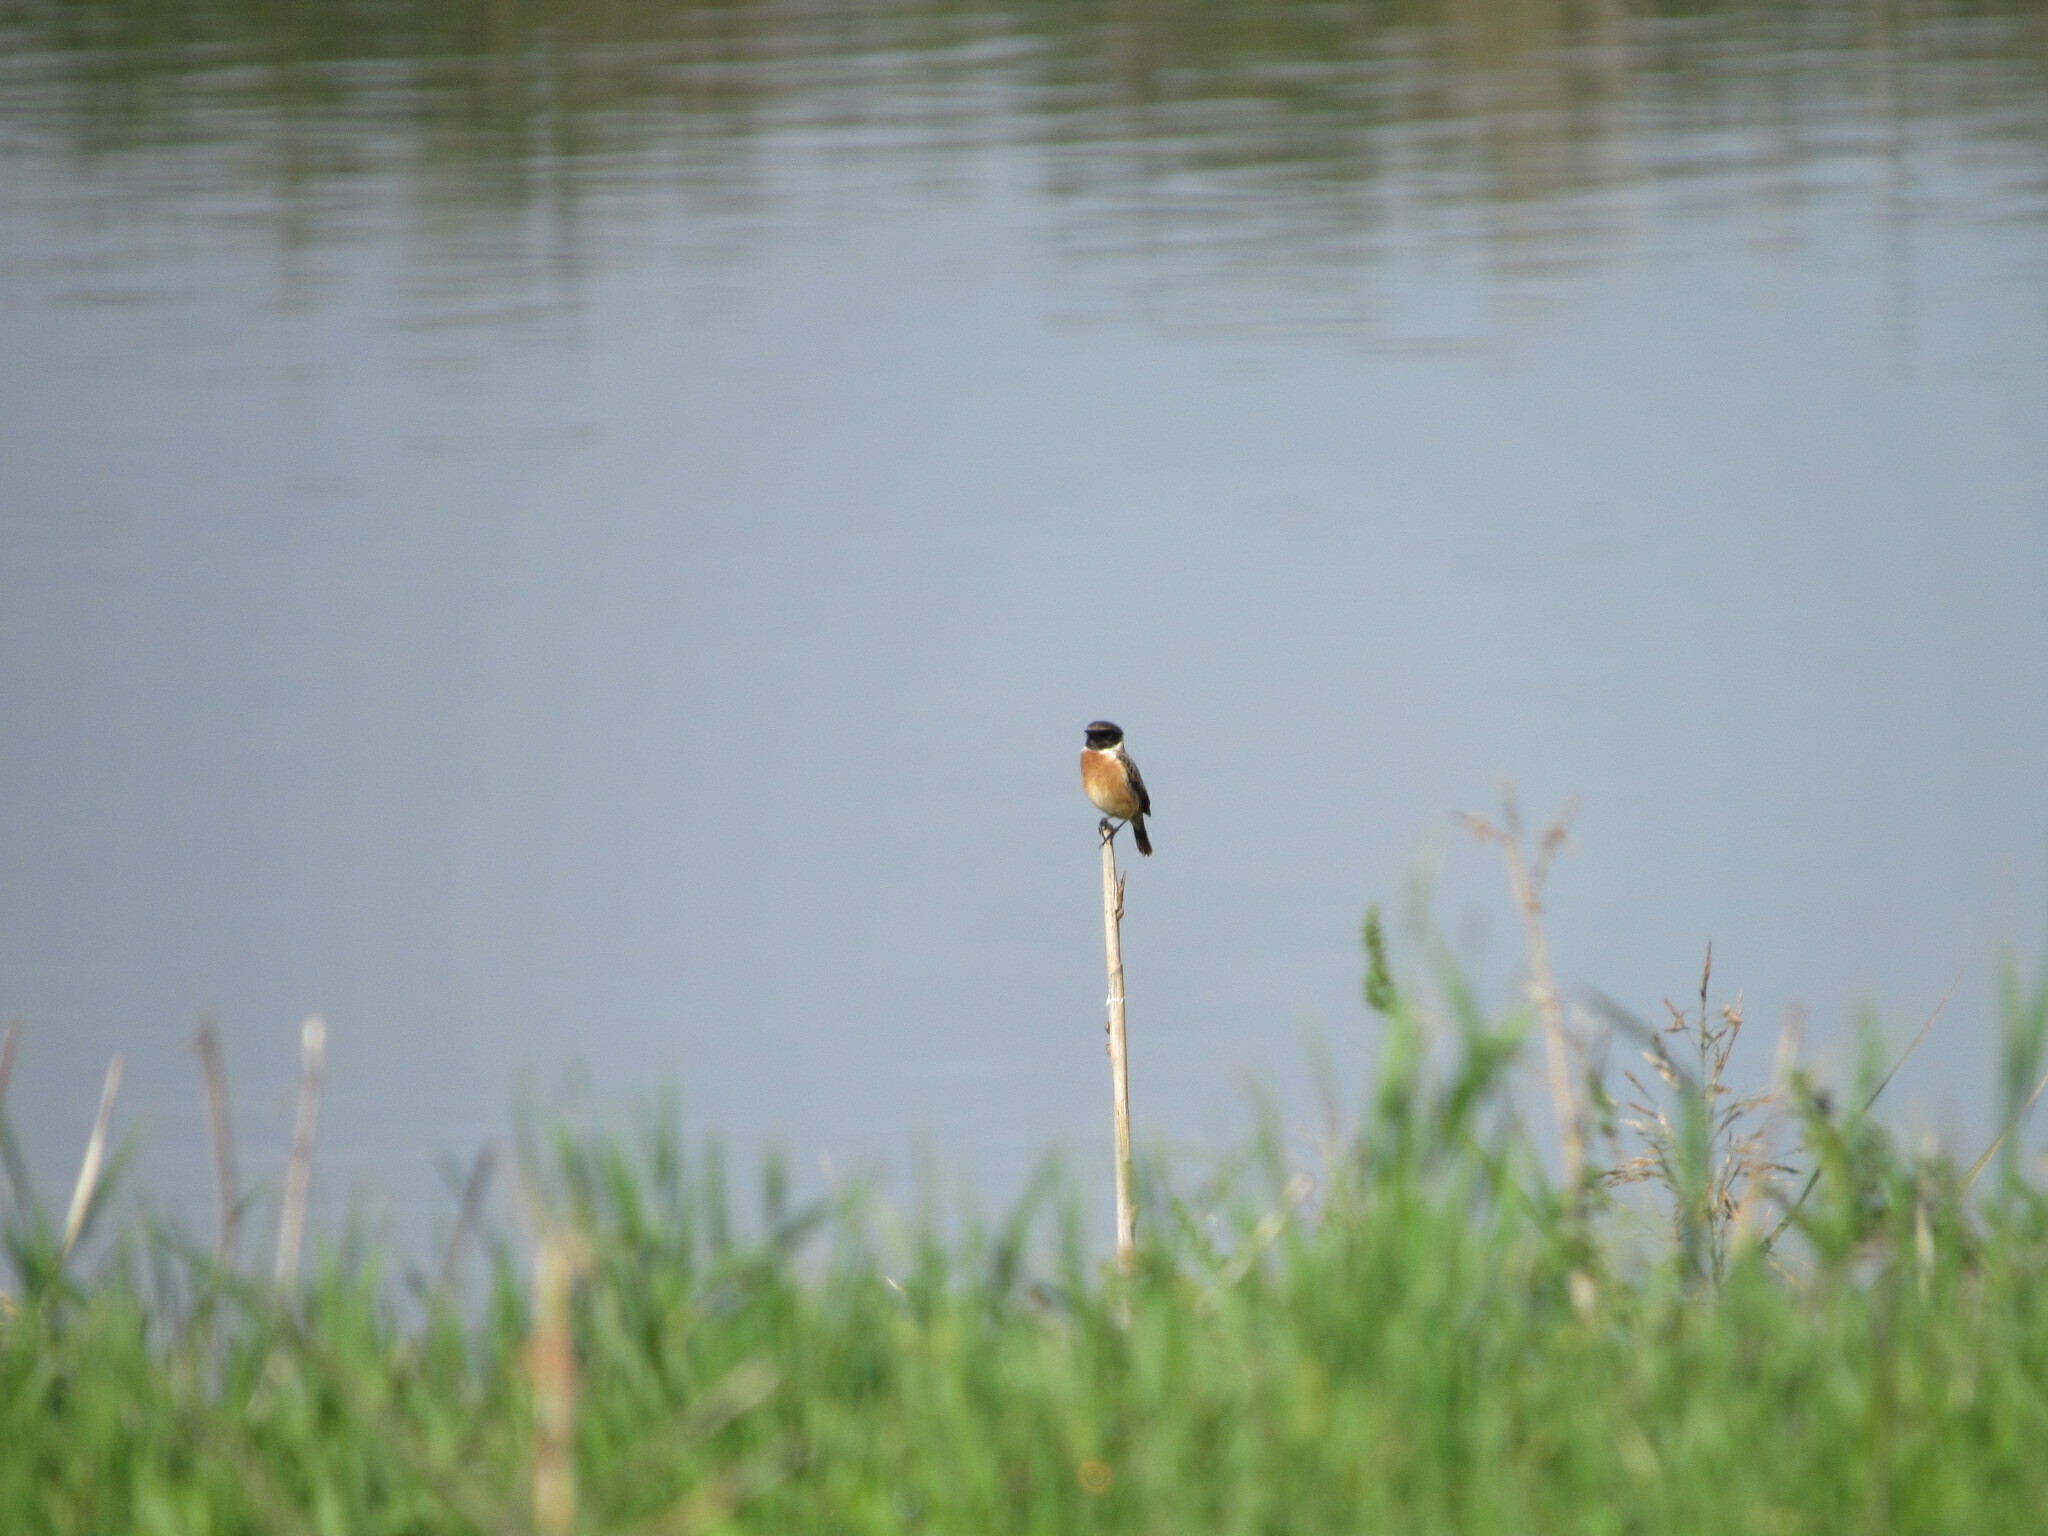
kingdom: Animalia
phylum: Chordata
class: Aves
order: Passeriformes
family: Muscicapidae
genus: Saxicola
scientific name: Saxicola rubicola
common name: European stonechat
